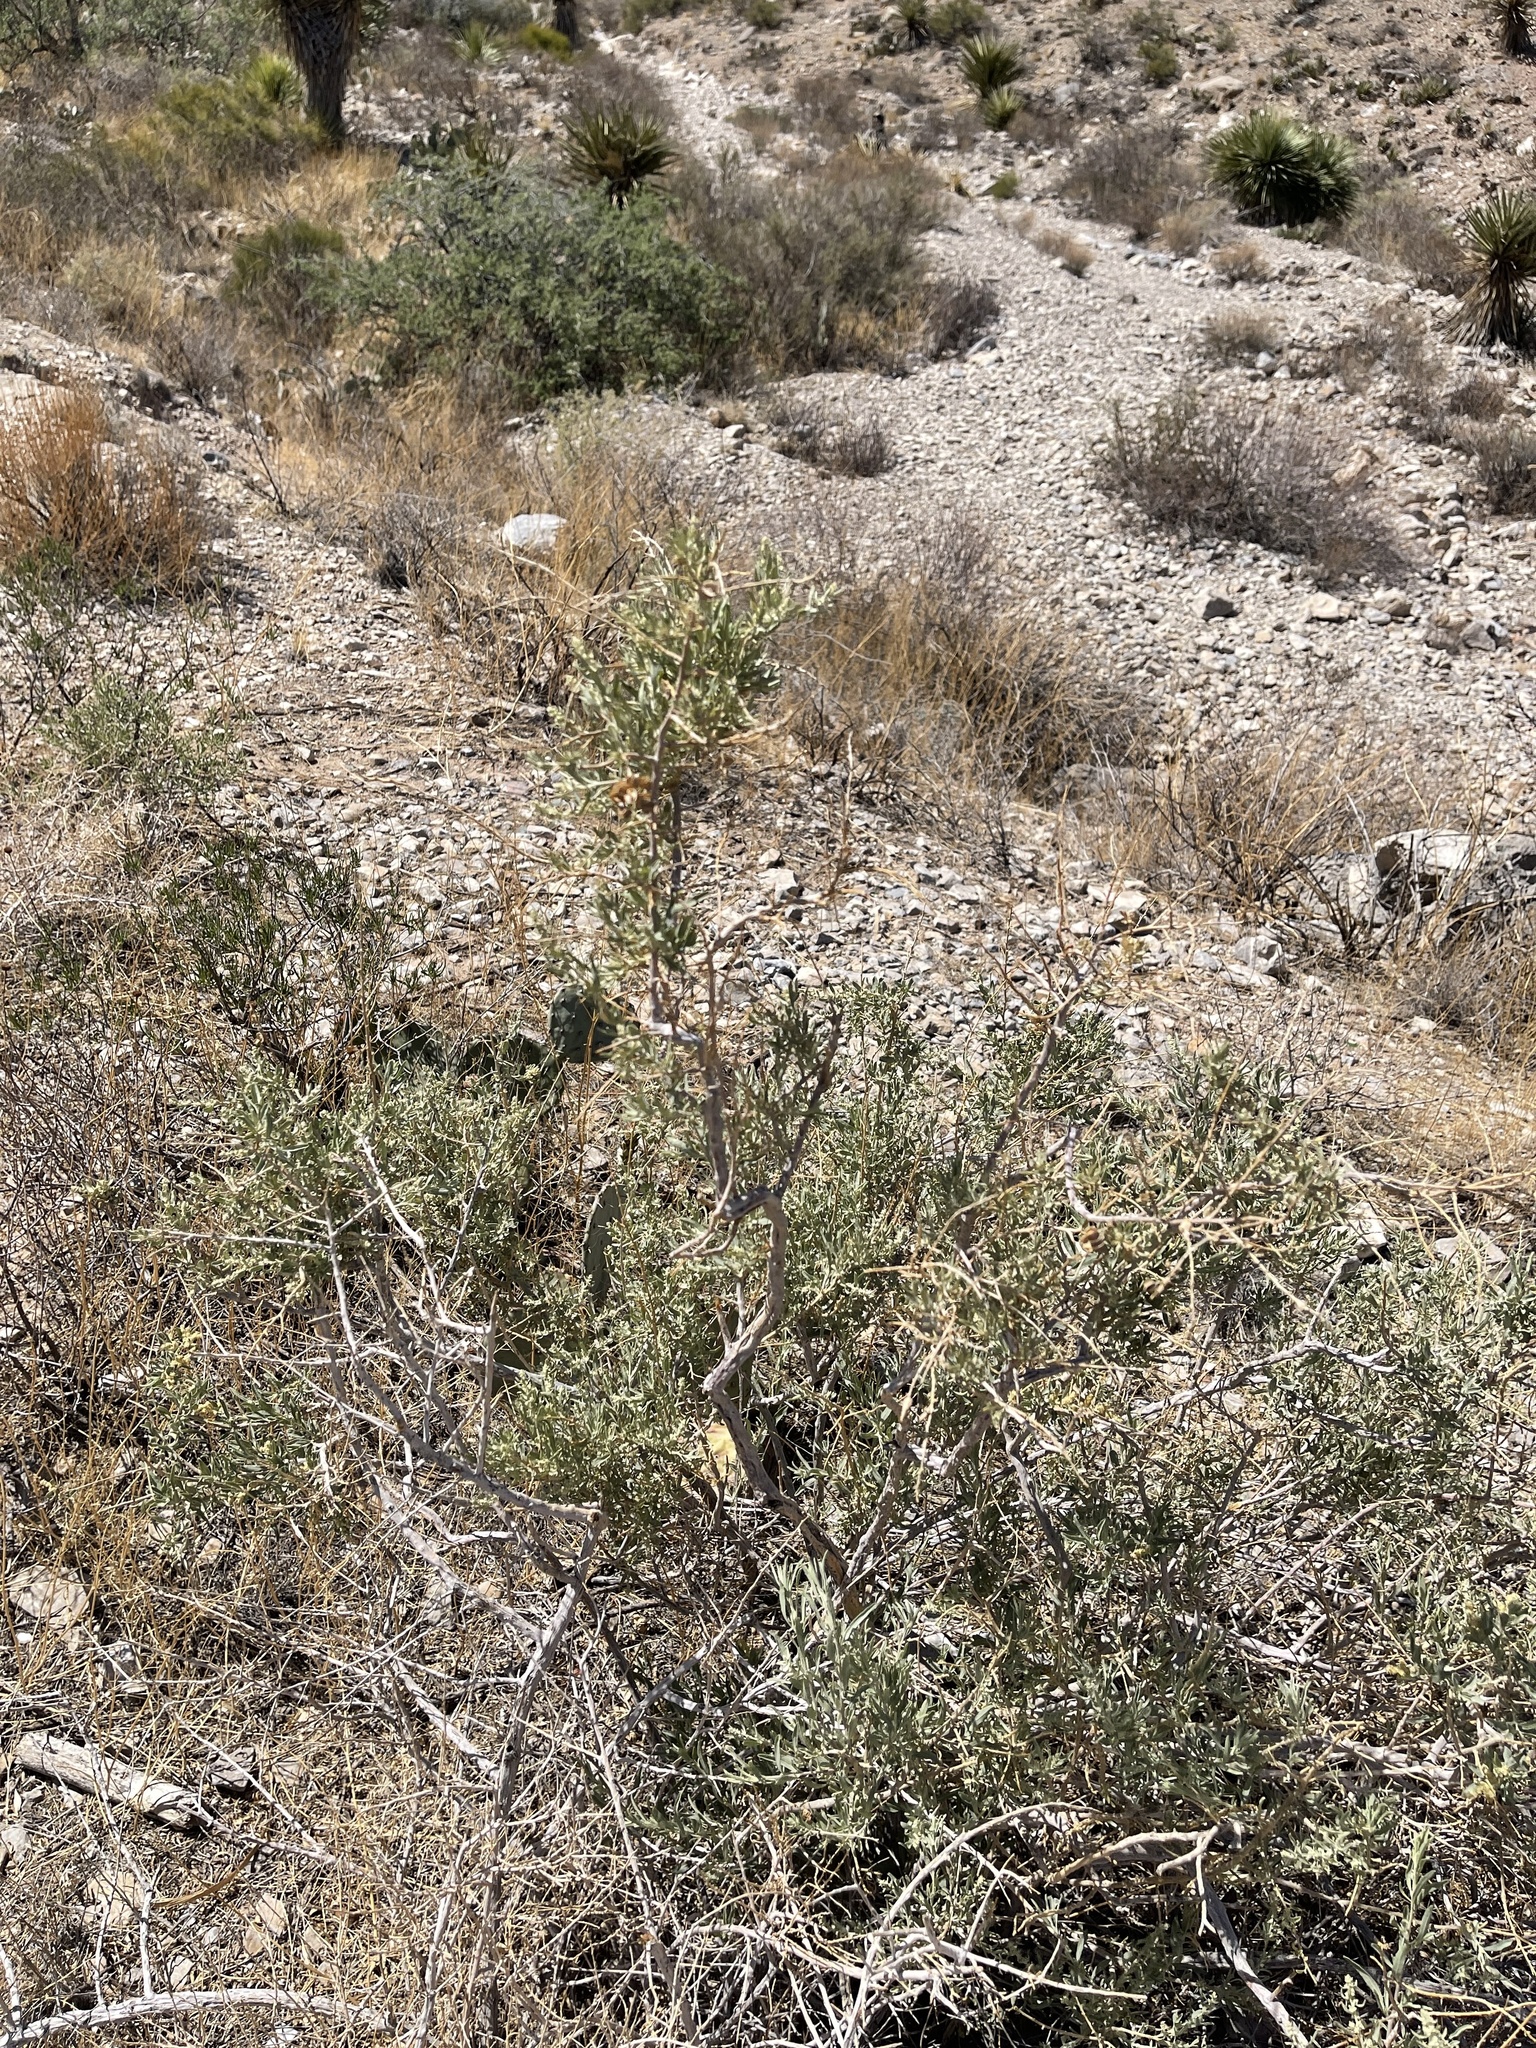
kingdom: Plantae
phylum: Tracheophyta
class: Magnoliopsida
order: Caryophyllales
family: Amaranthaceae
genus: Atriplex
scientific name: Atriplex canescens
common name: Four-wing saltbush
